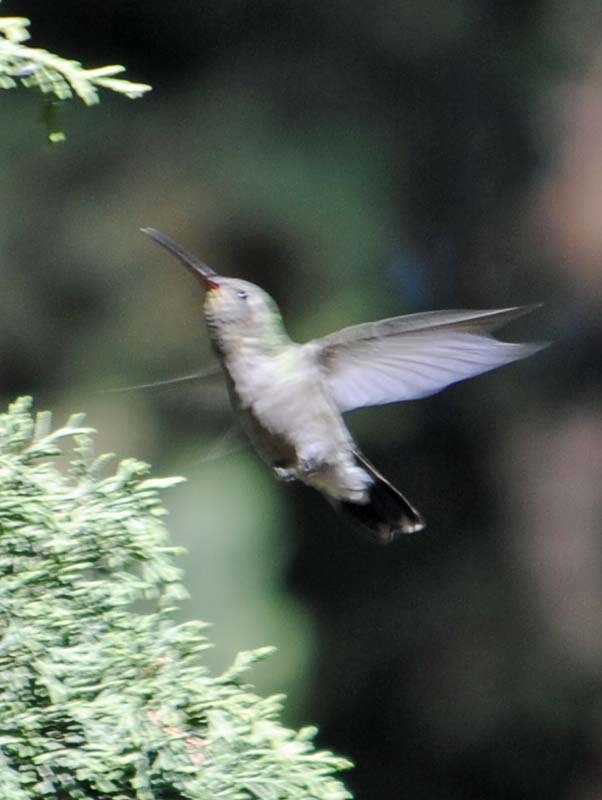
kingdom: Animalia
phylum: Chordata
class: Aves
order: Apodiformes
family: Trochilidae
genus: Cynanthus
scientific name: Cynanthus latirostris
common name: Broad-billed hummingbird
